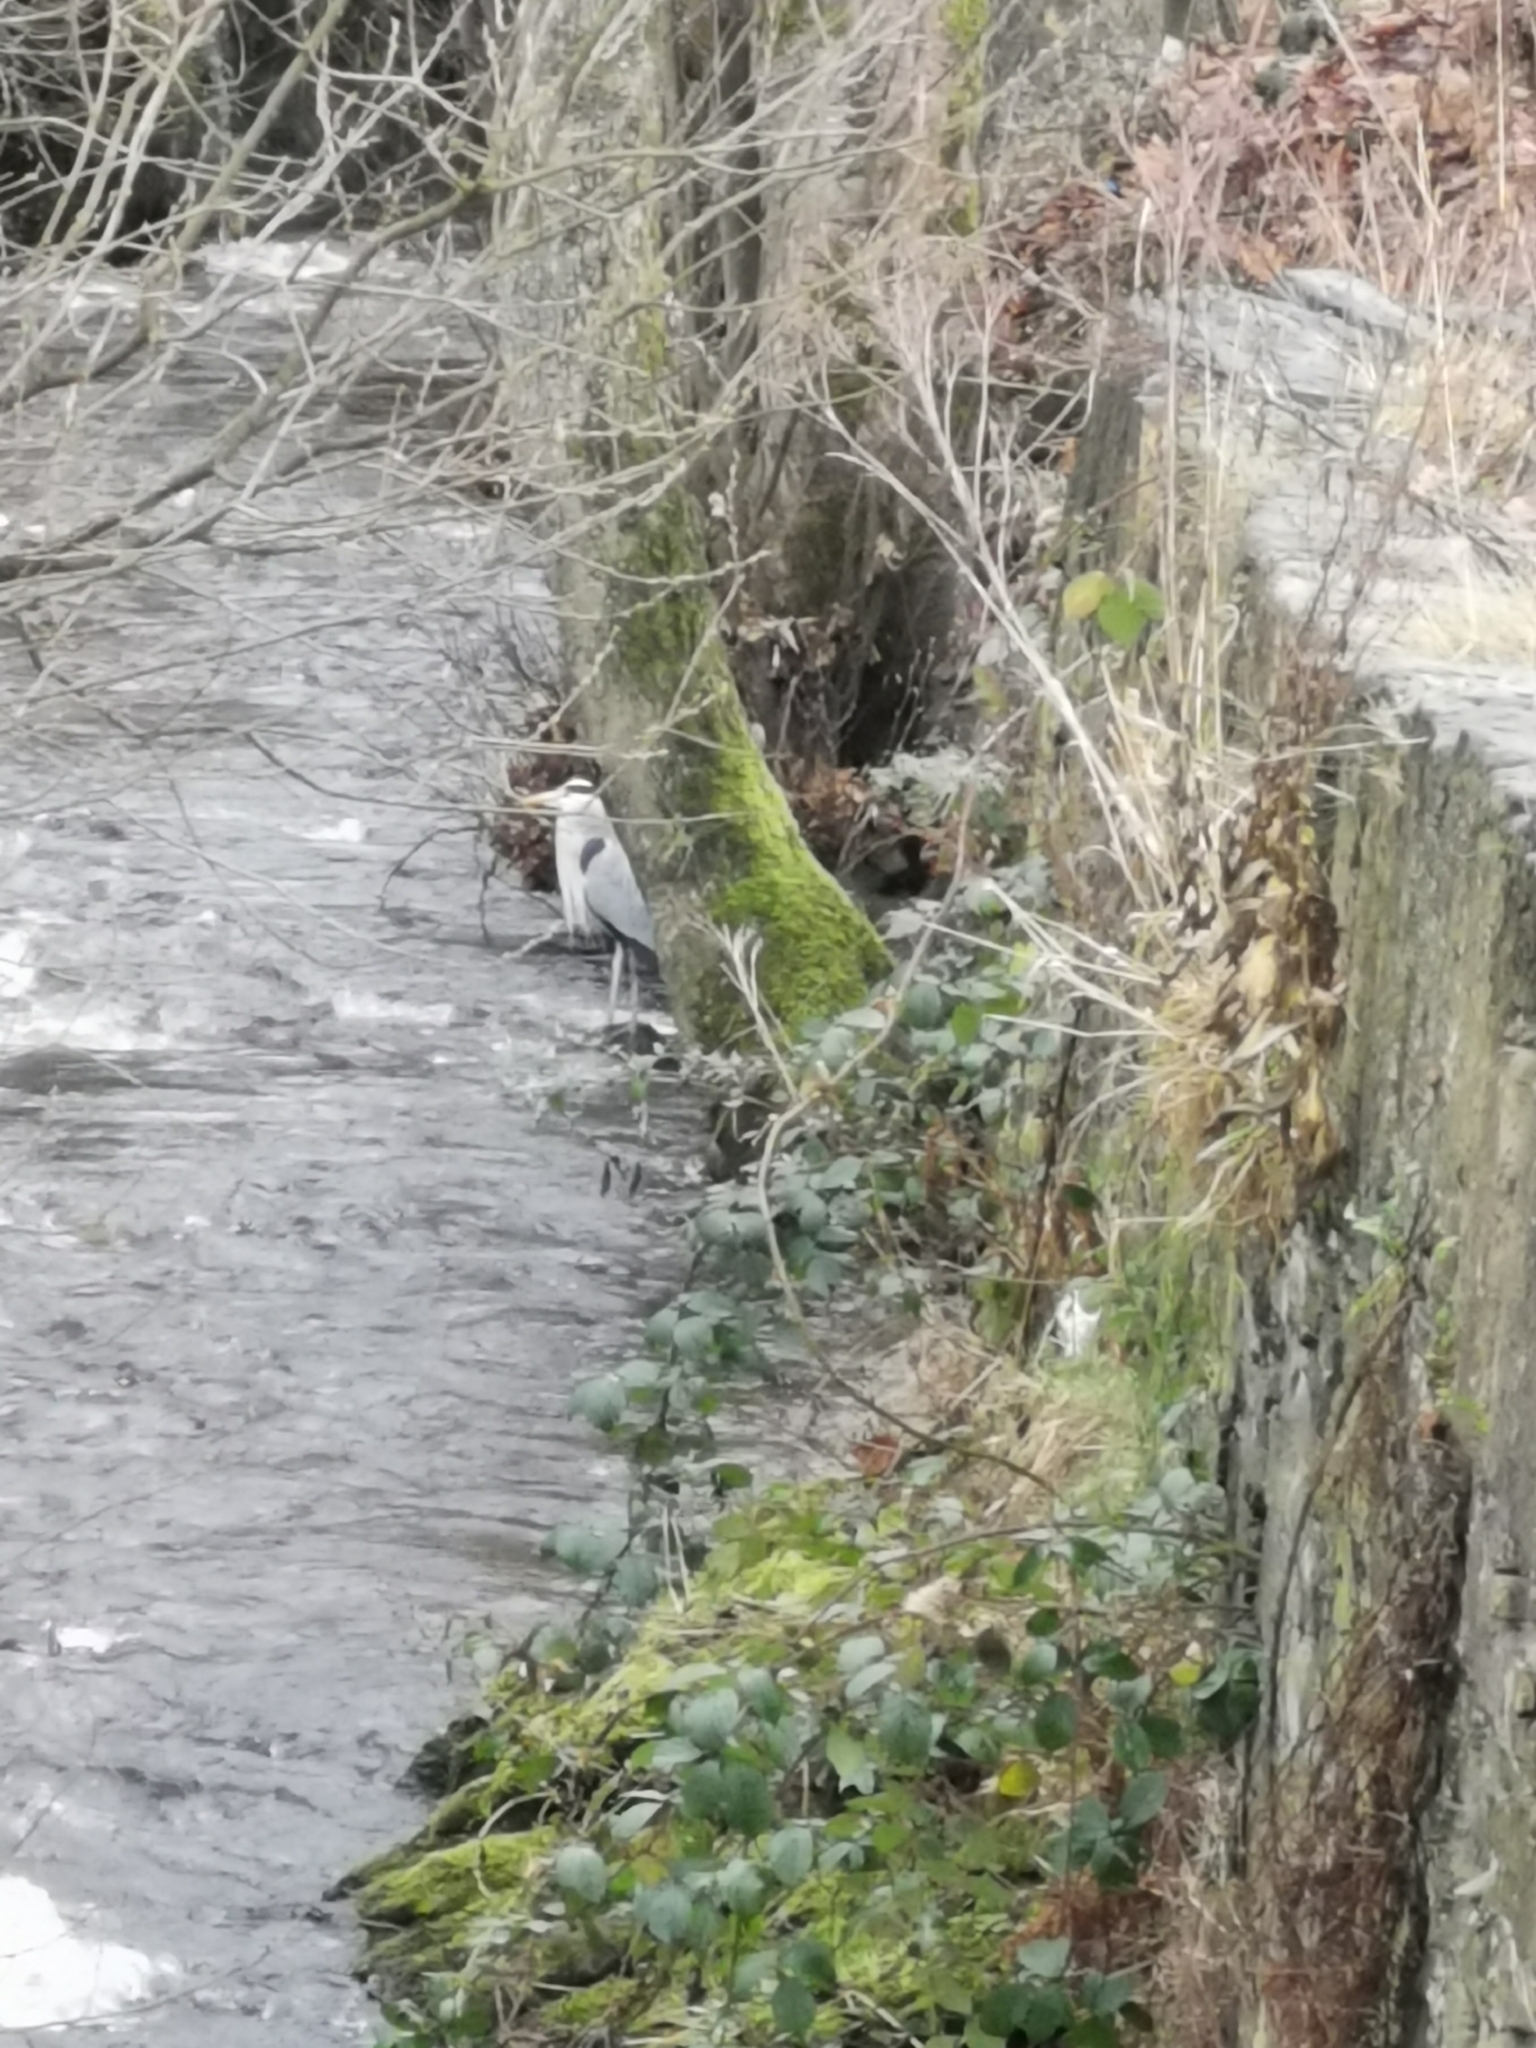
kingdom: Animalia
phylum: Chordata
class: Aves
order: Pelecaniformes
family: Ardeidae
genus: Ardea
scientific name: Ardea cinerea
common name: Grey heron
